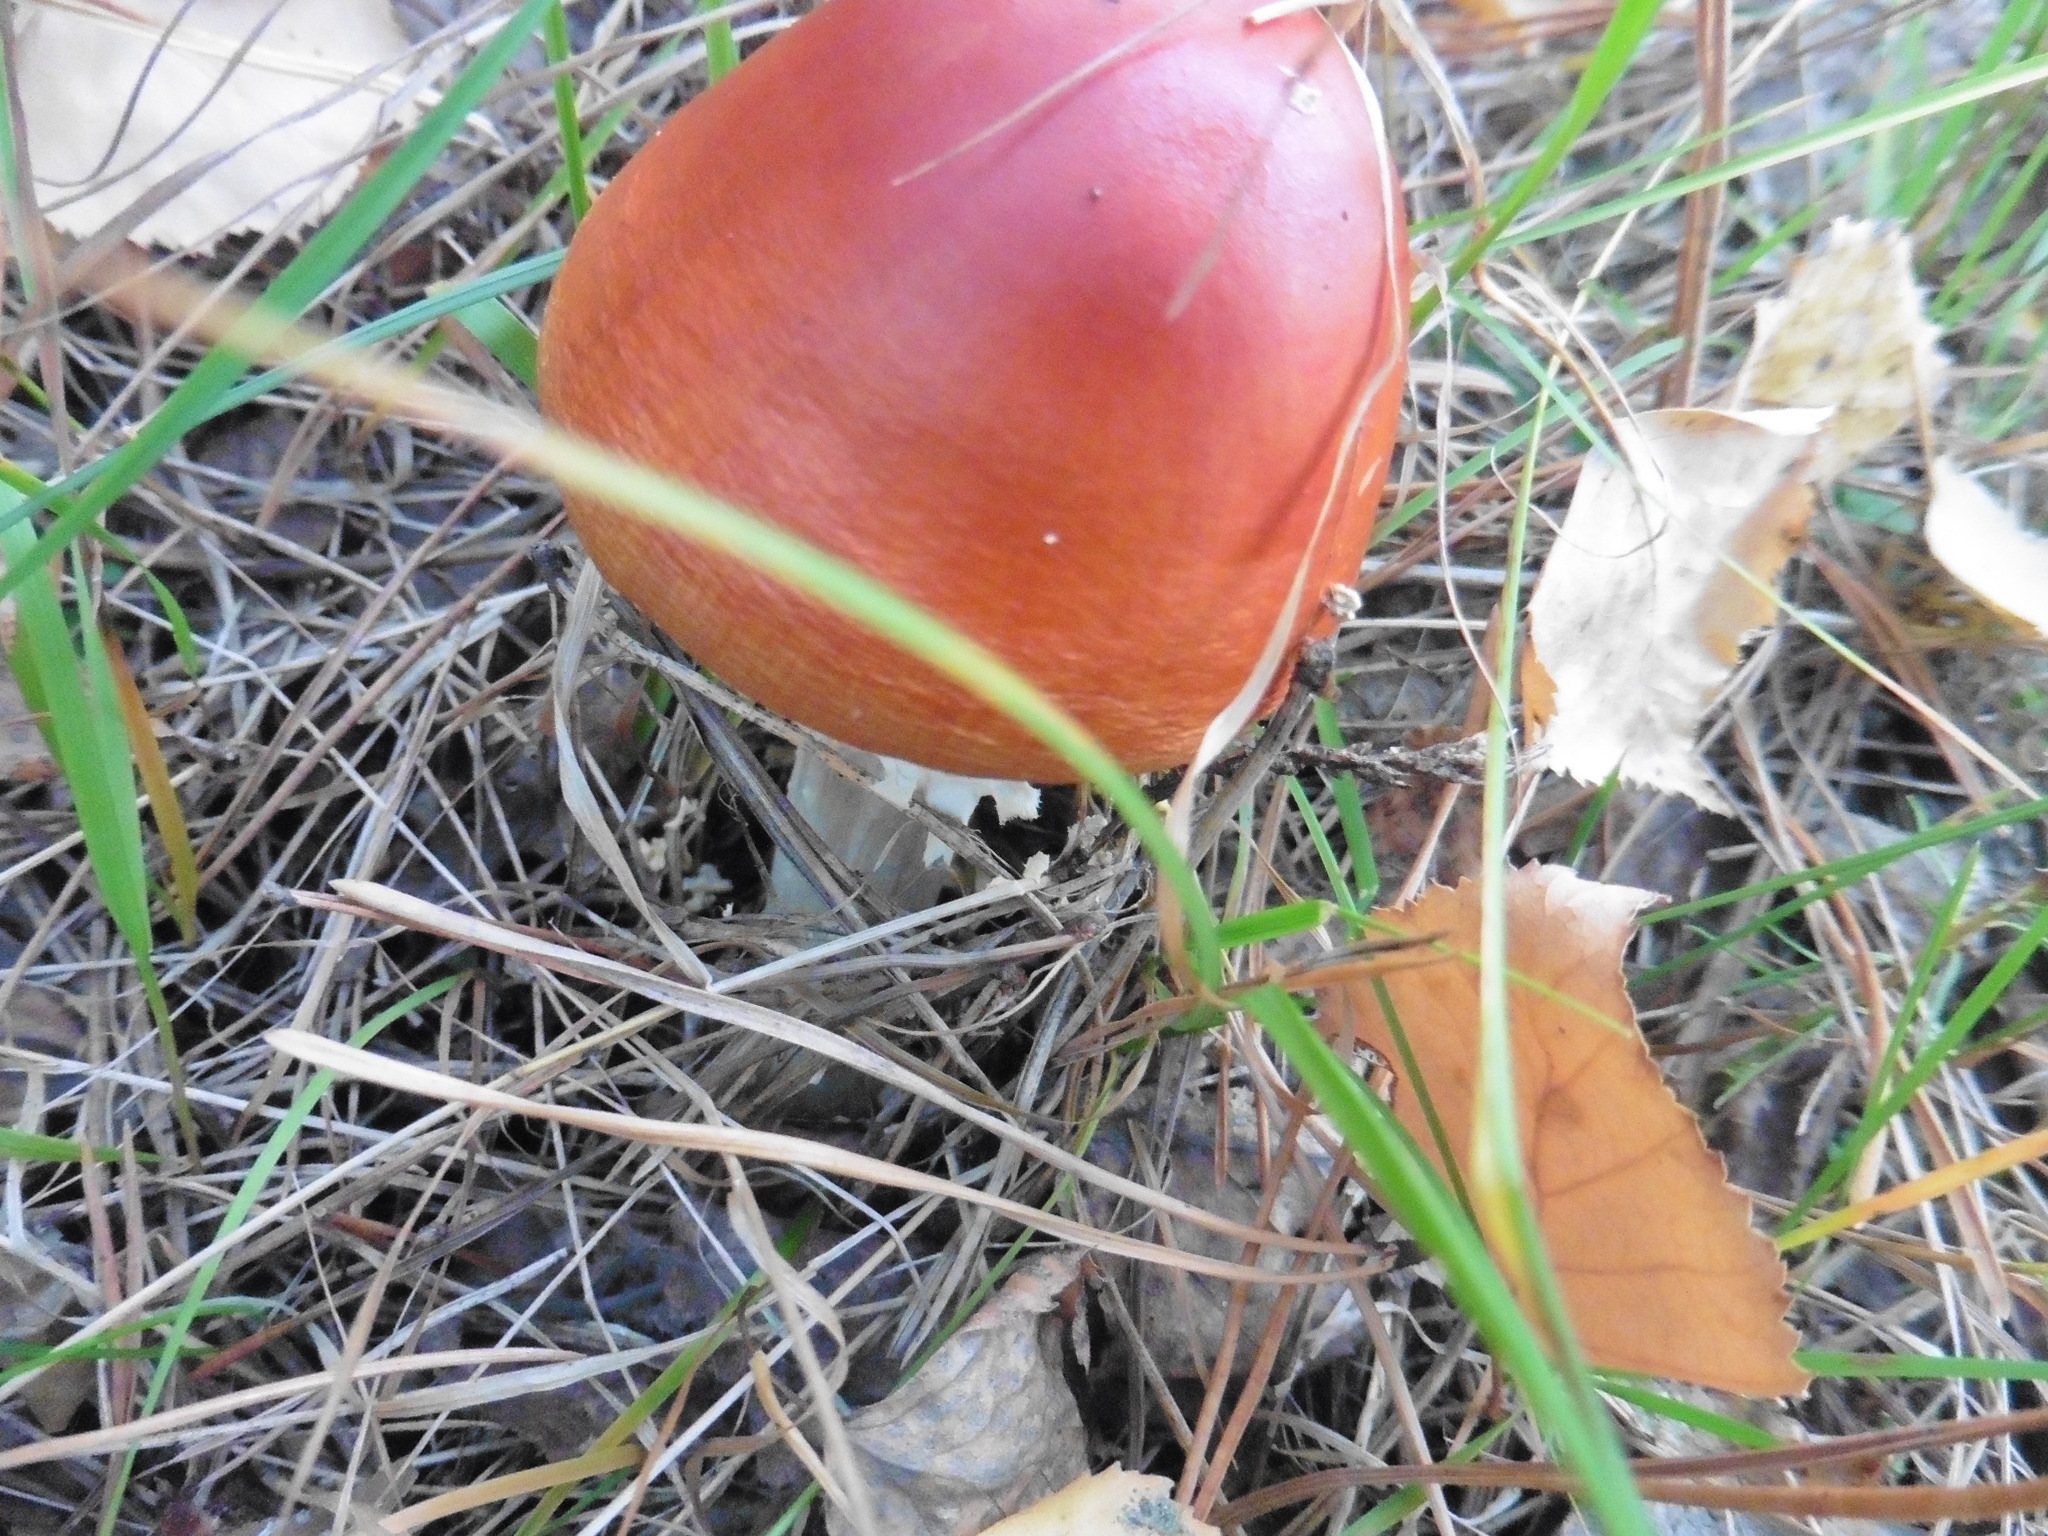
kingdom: Fungi
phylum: Basidiomycota
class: Agaricomycetes
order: Agaricales
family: Amanitaceae
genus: Amanita
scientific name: Amanita muscaria
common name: Fly agaric
